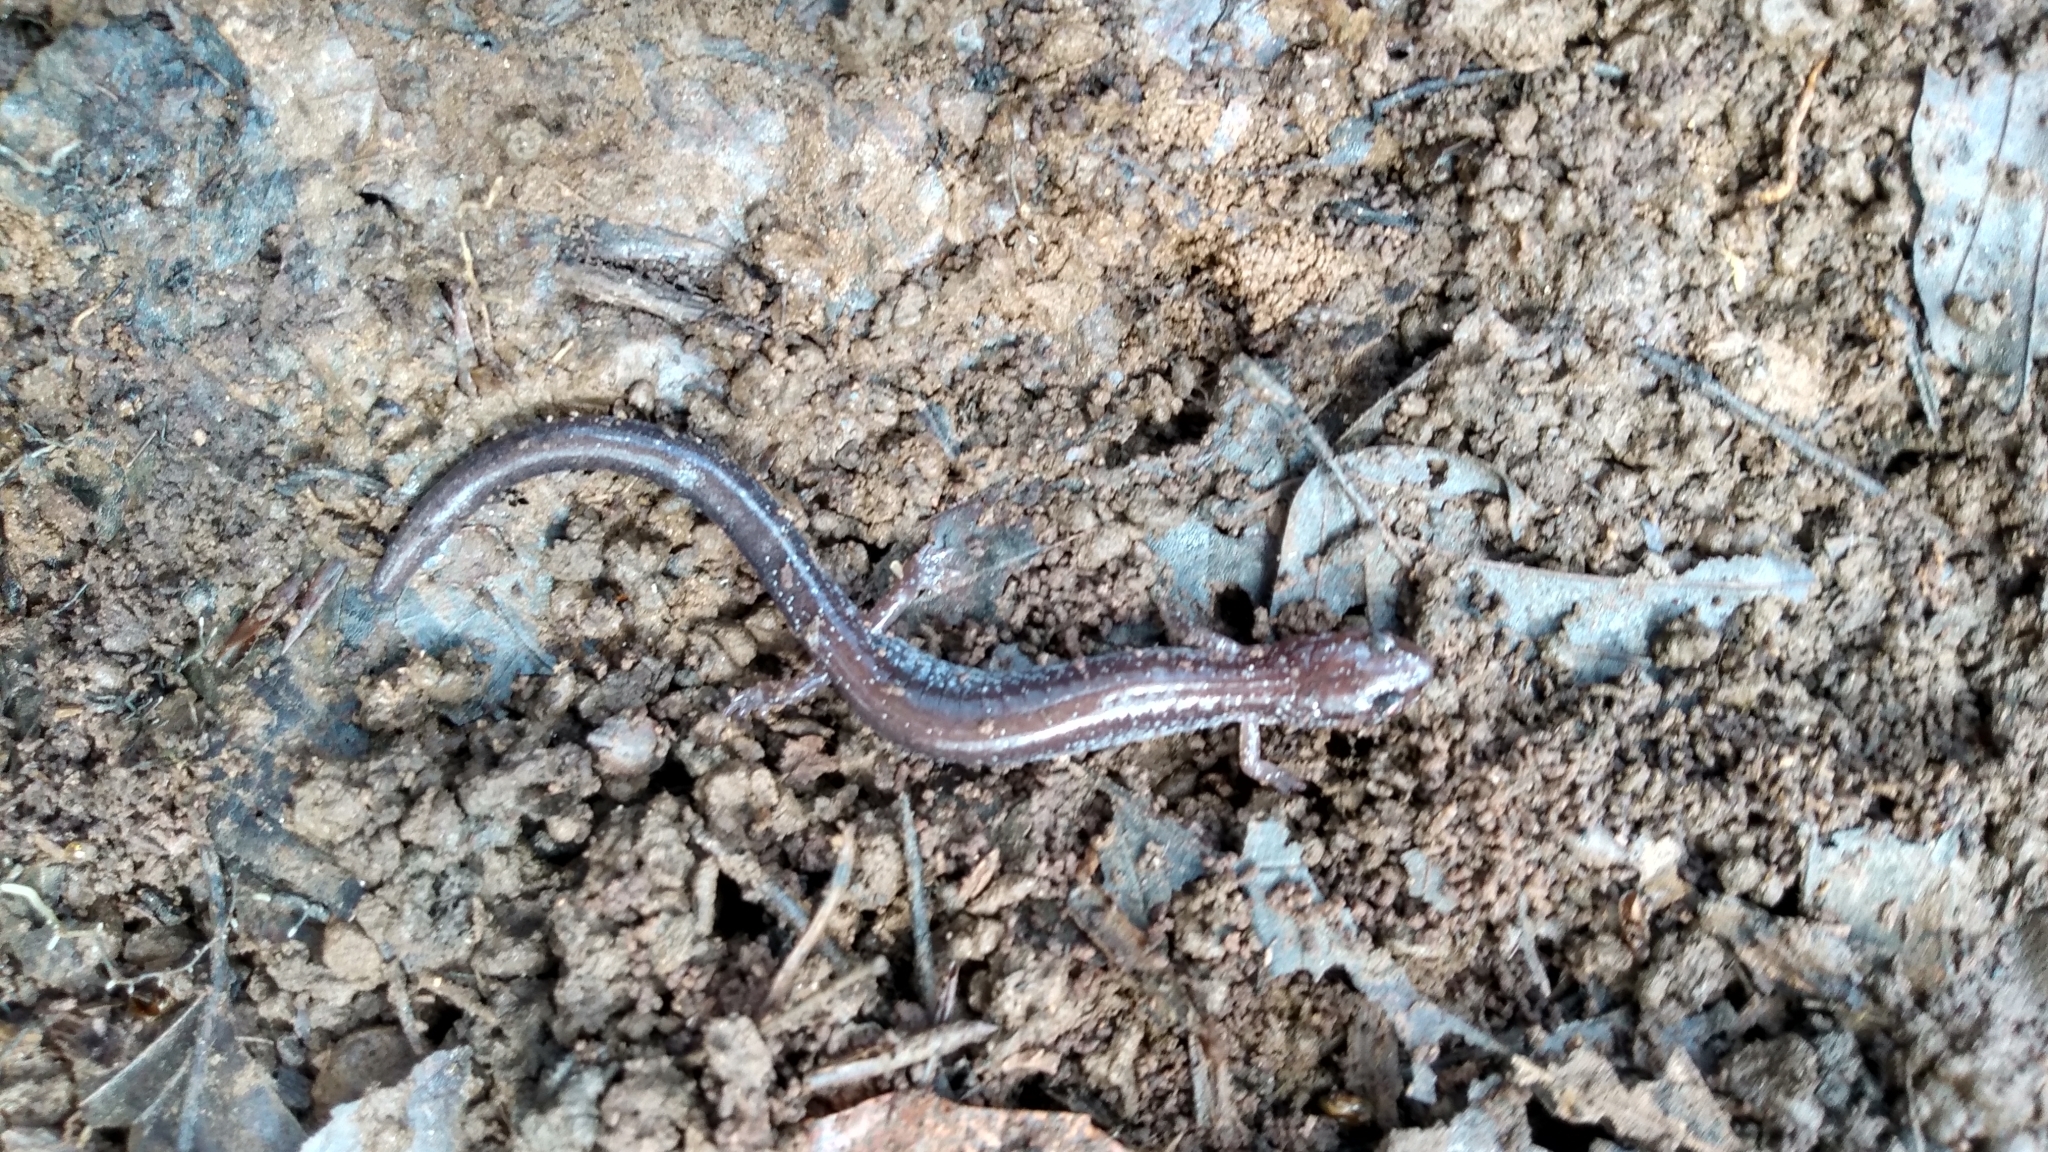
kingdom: Animalia
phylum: Chordata
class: Amphibia
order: Caudata
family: Plethodontidae
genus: Plethodon
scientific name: Plethodon cinereus
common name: Redback salamander
